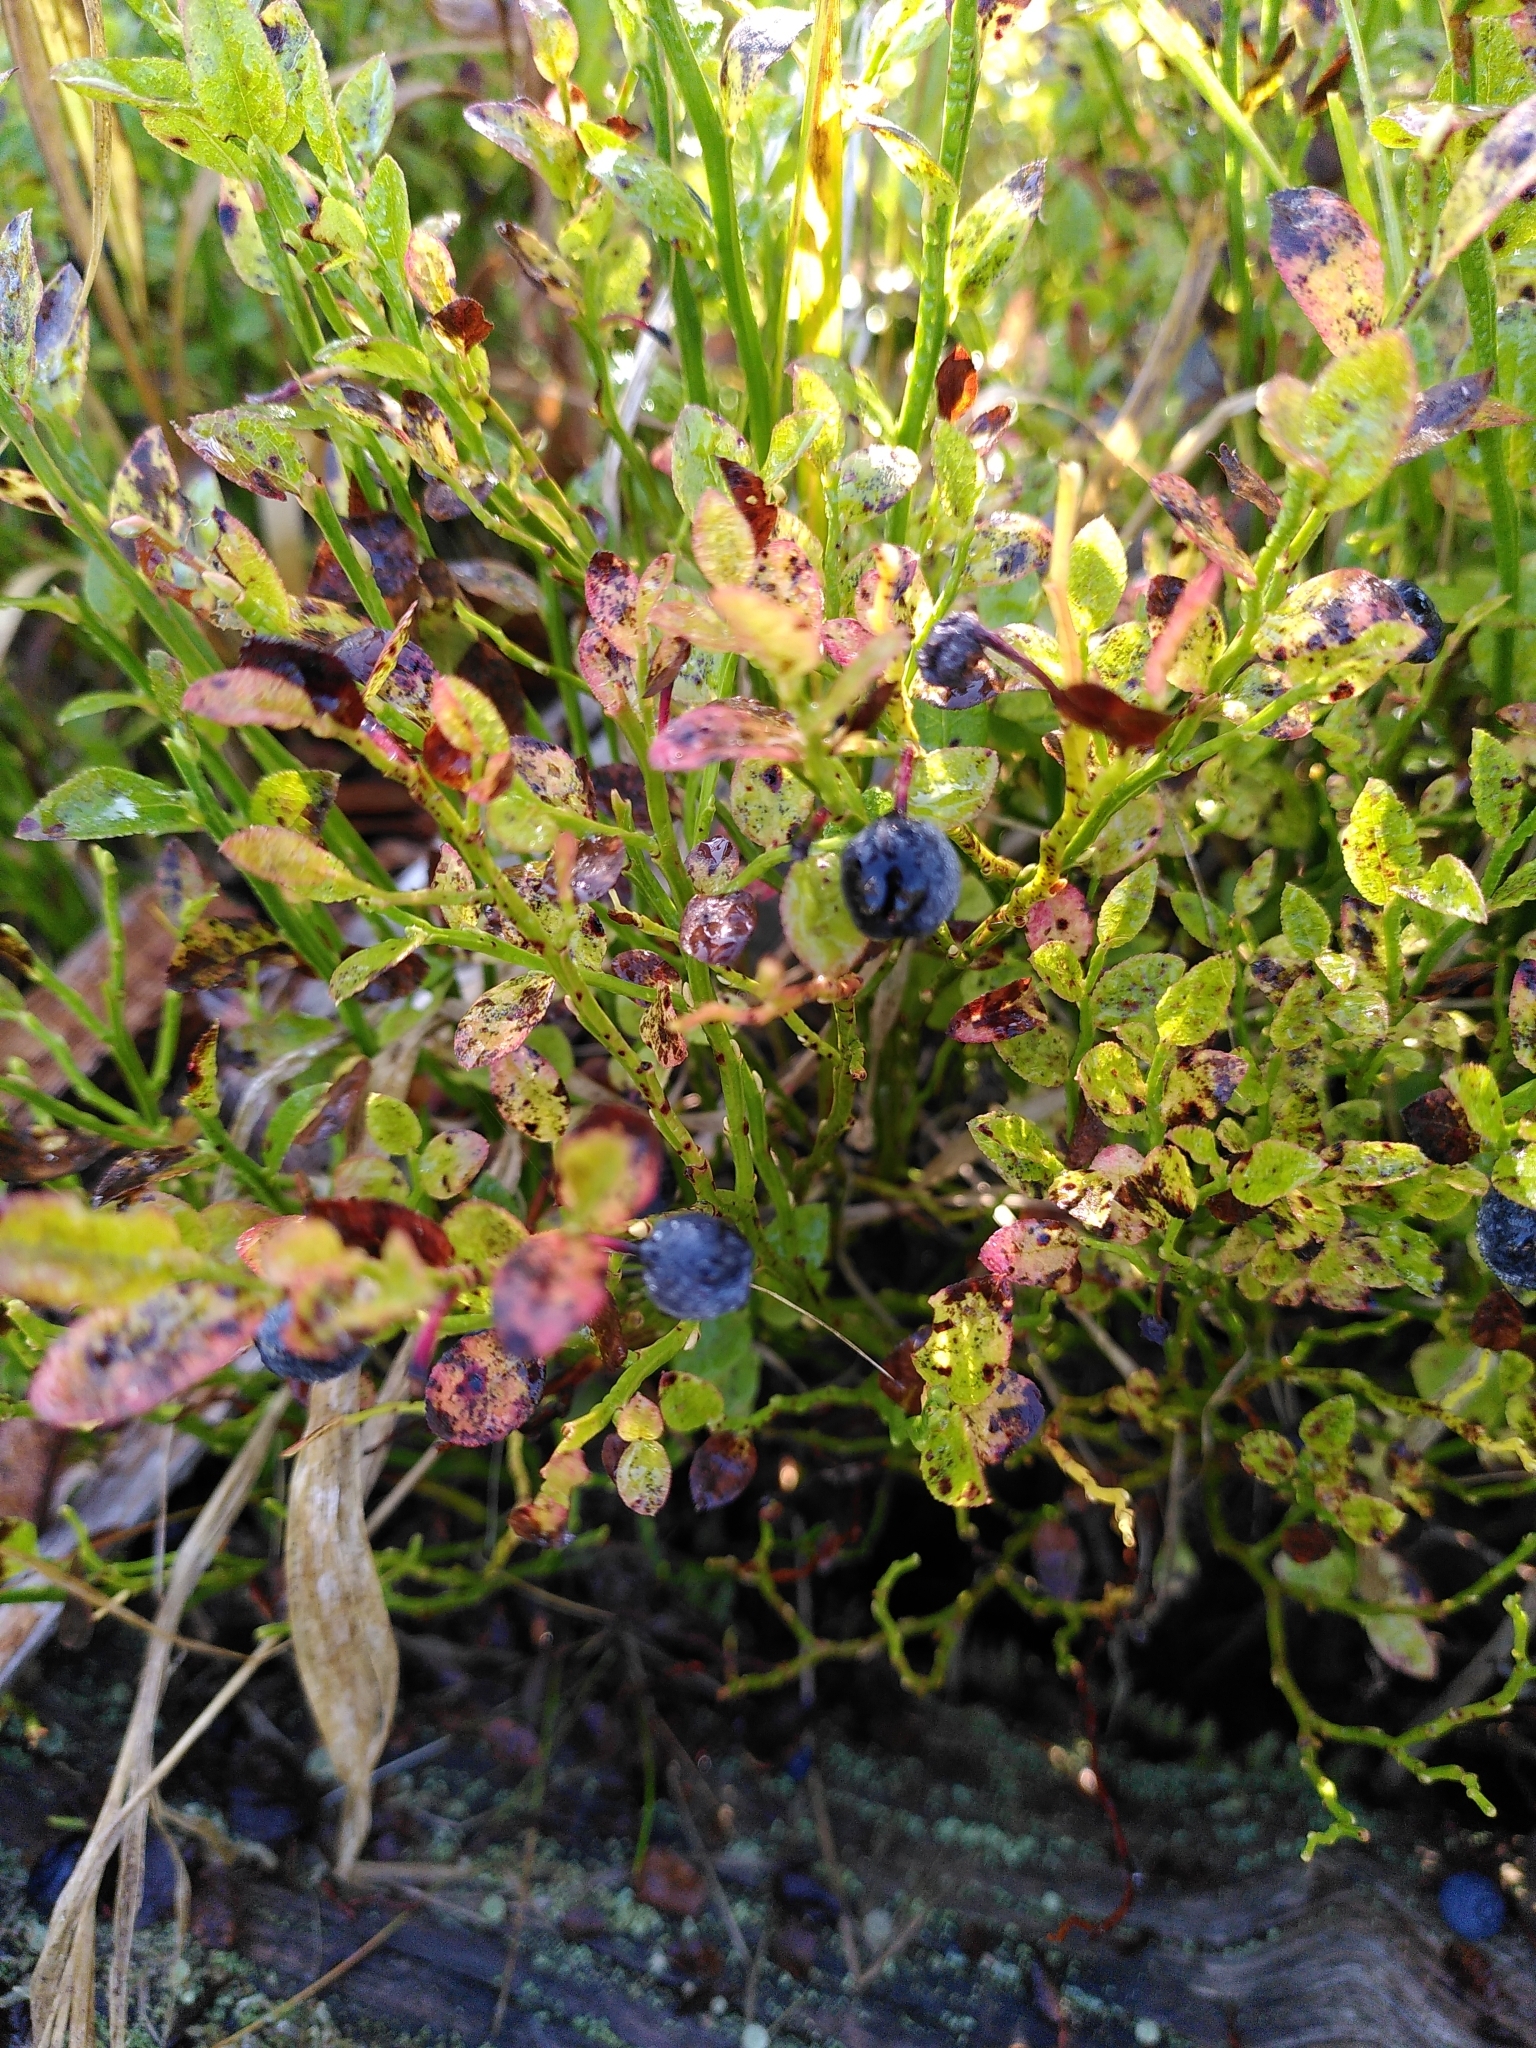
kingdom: Plantae
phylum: Tracheophyta
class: Magnoliopsida
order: Ericales
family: Ericaceae
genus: Vaccinium
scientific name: Vaccinium myrtillus
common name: Bilberry
